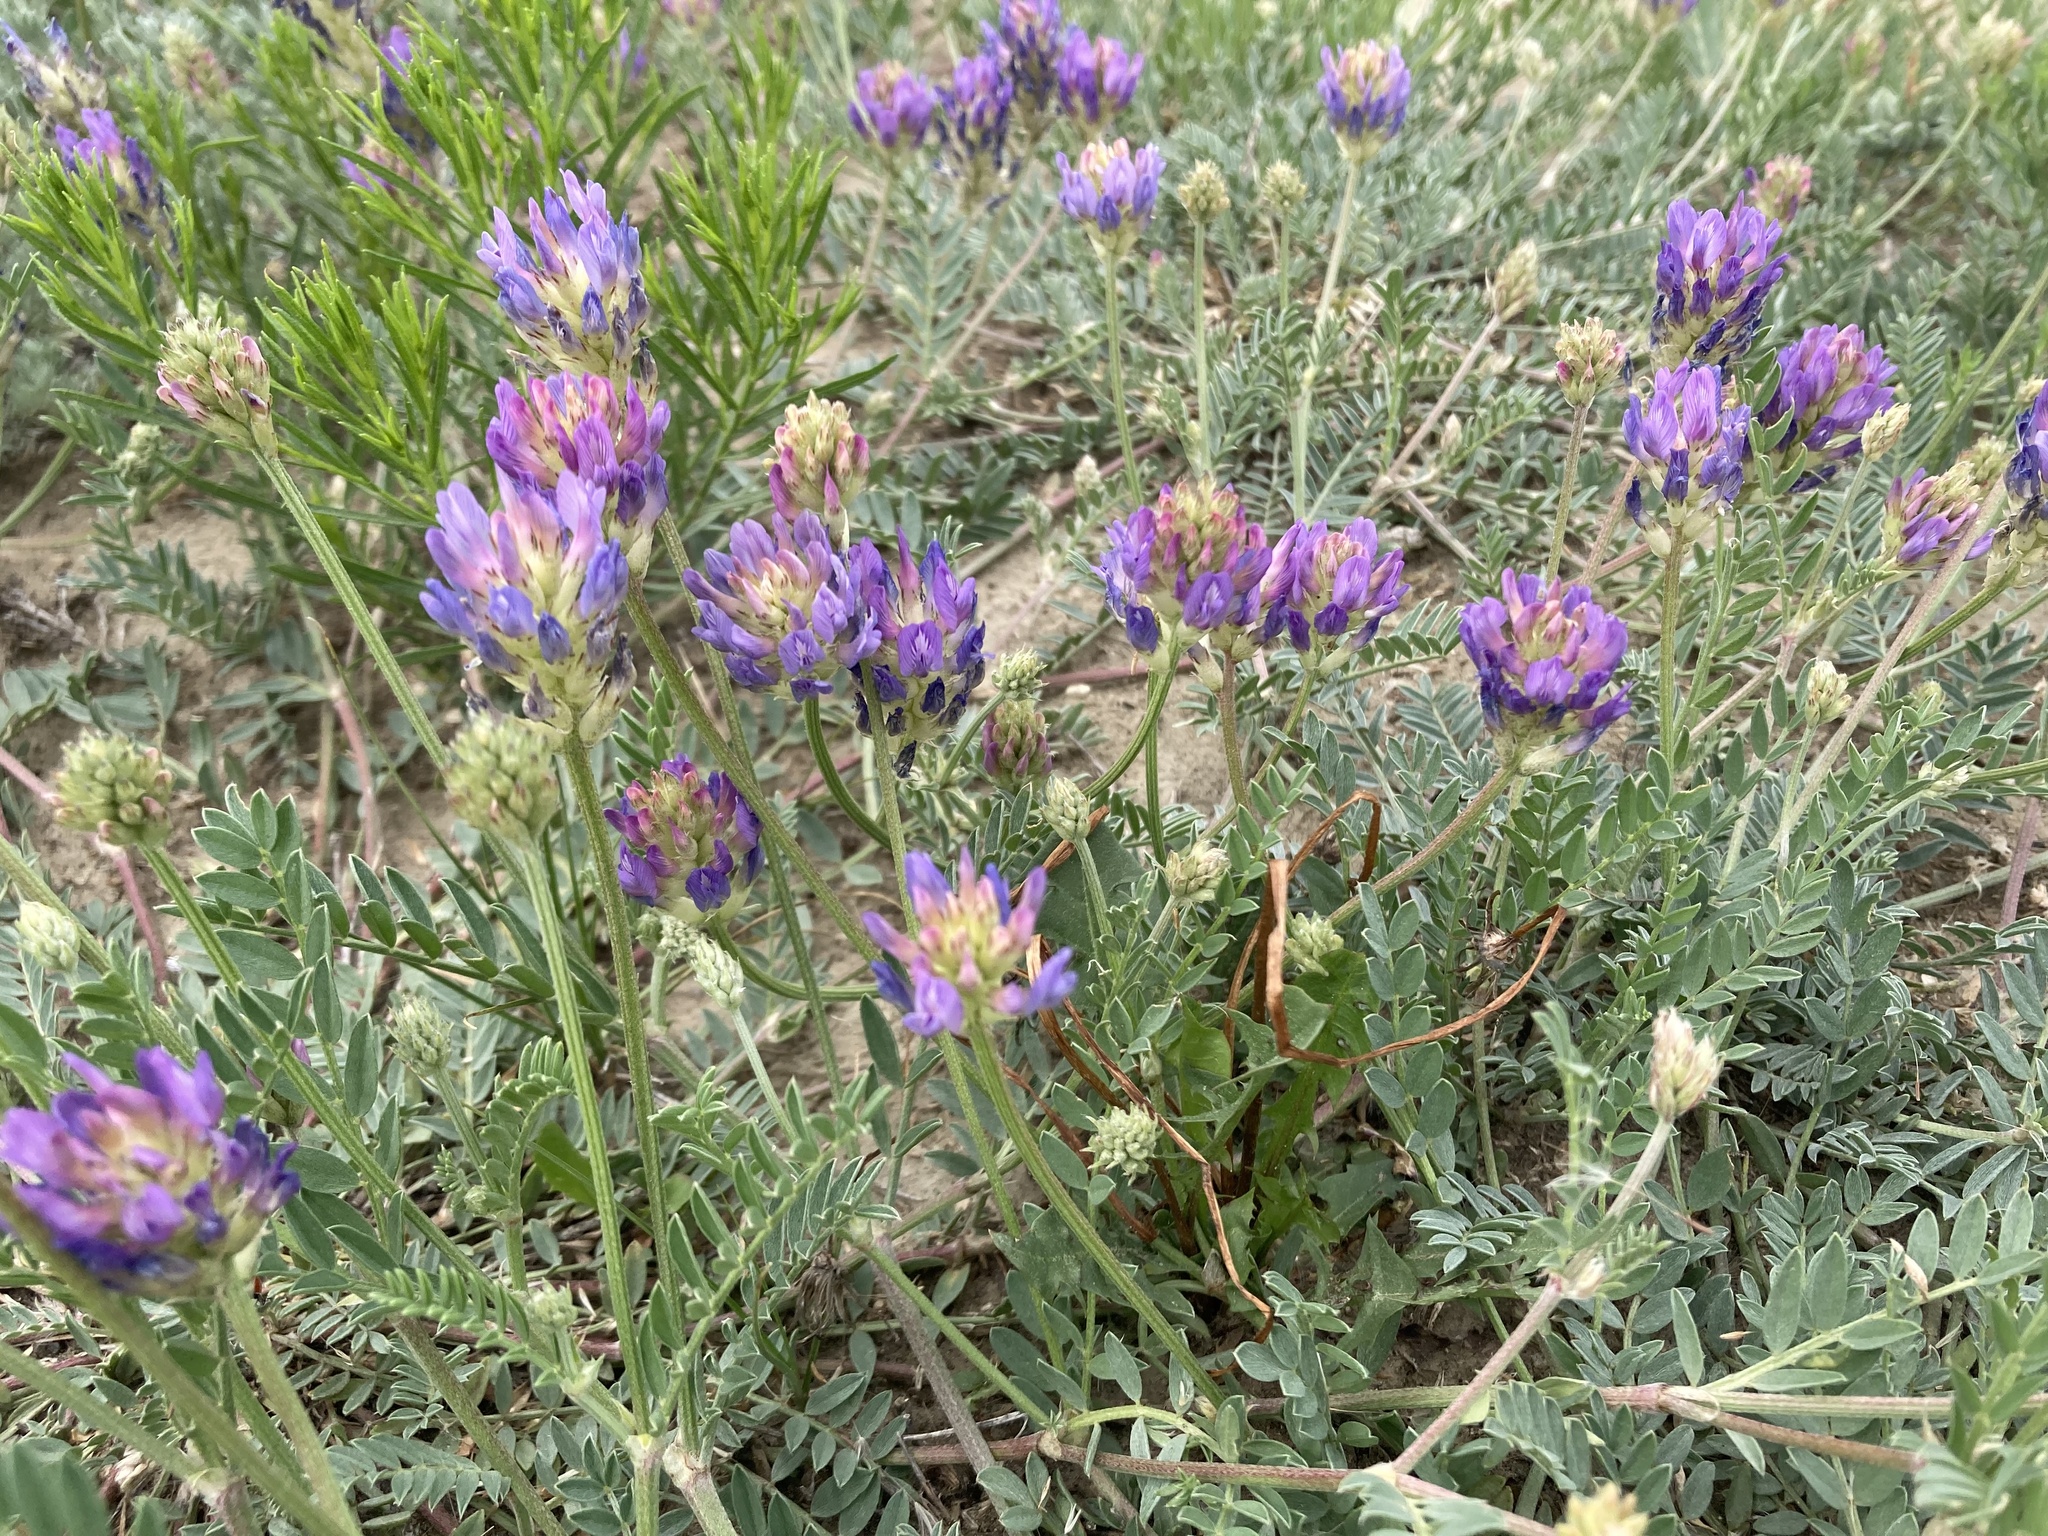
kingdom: Plantae
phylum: Tracheophyta
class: Magnoliopsida
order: Fabales
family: Fabaceae
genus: Astragalus
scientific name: Astragalus laxmannii
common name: Laxmann's milk-vetch
